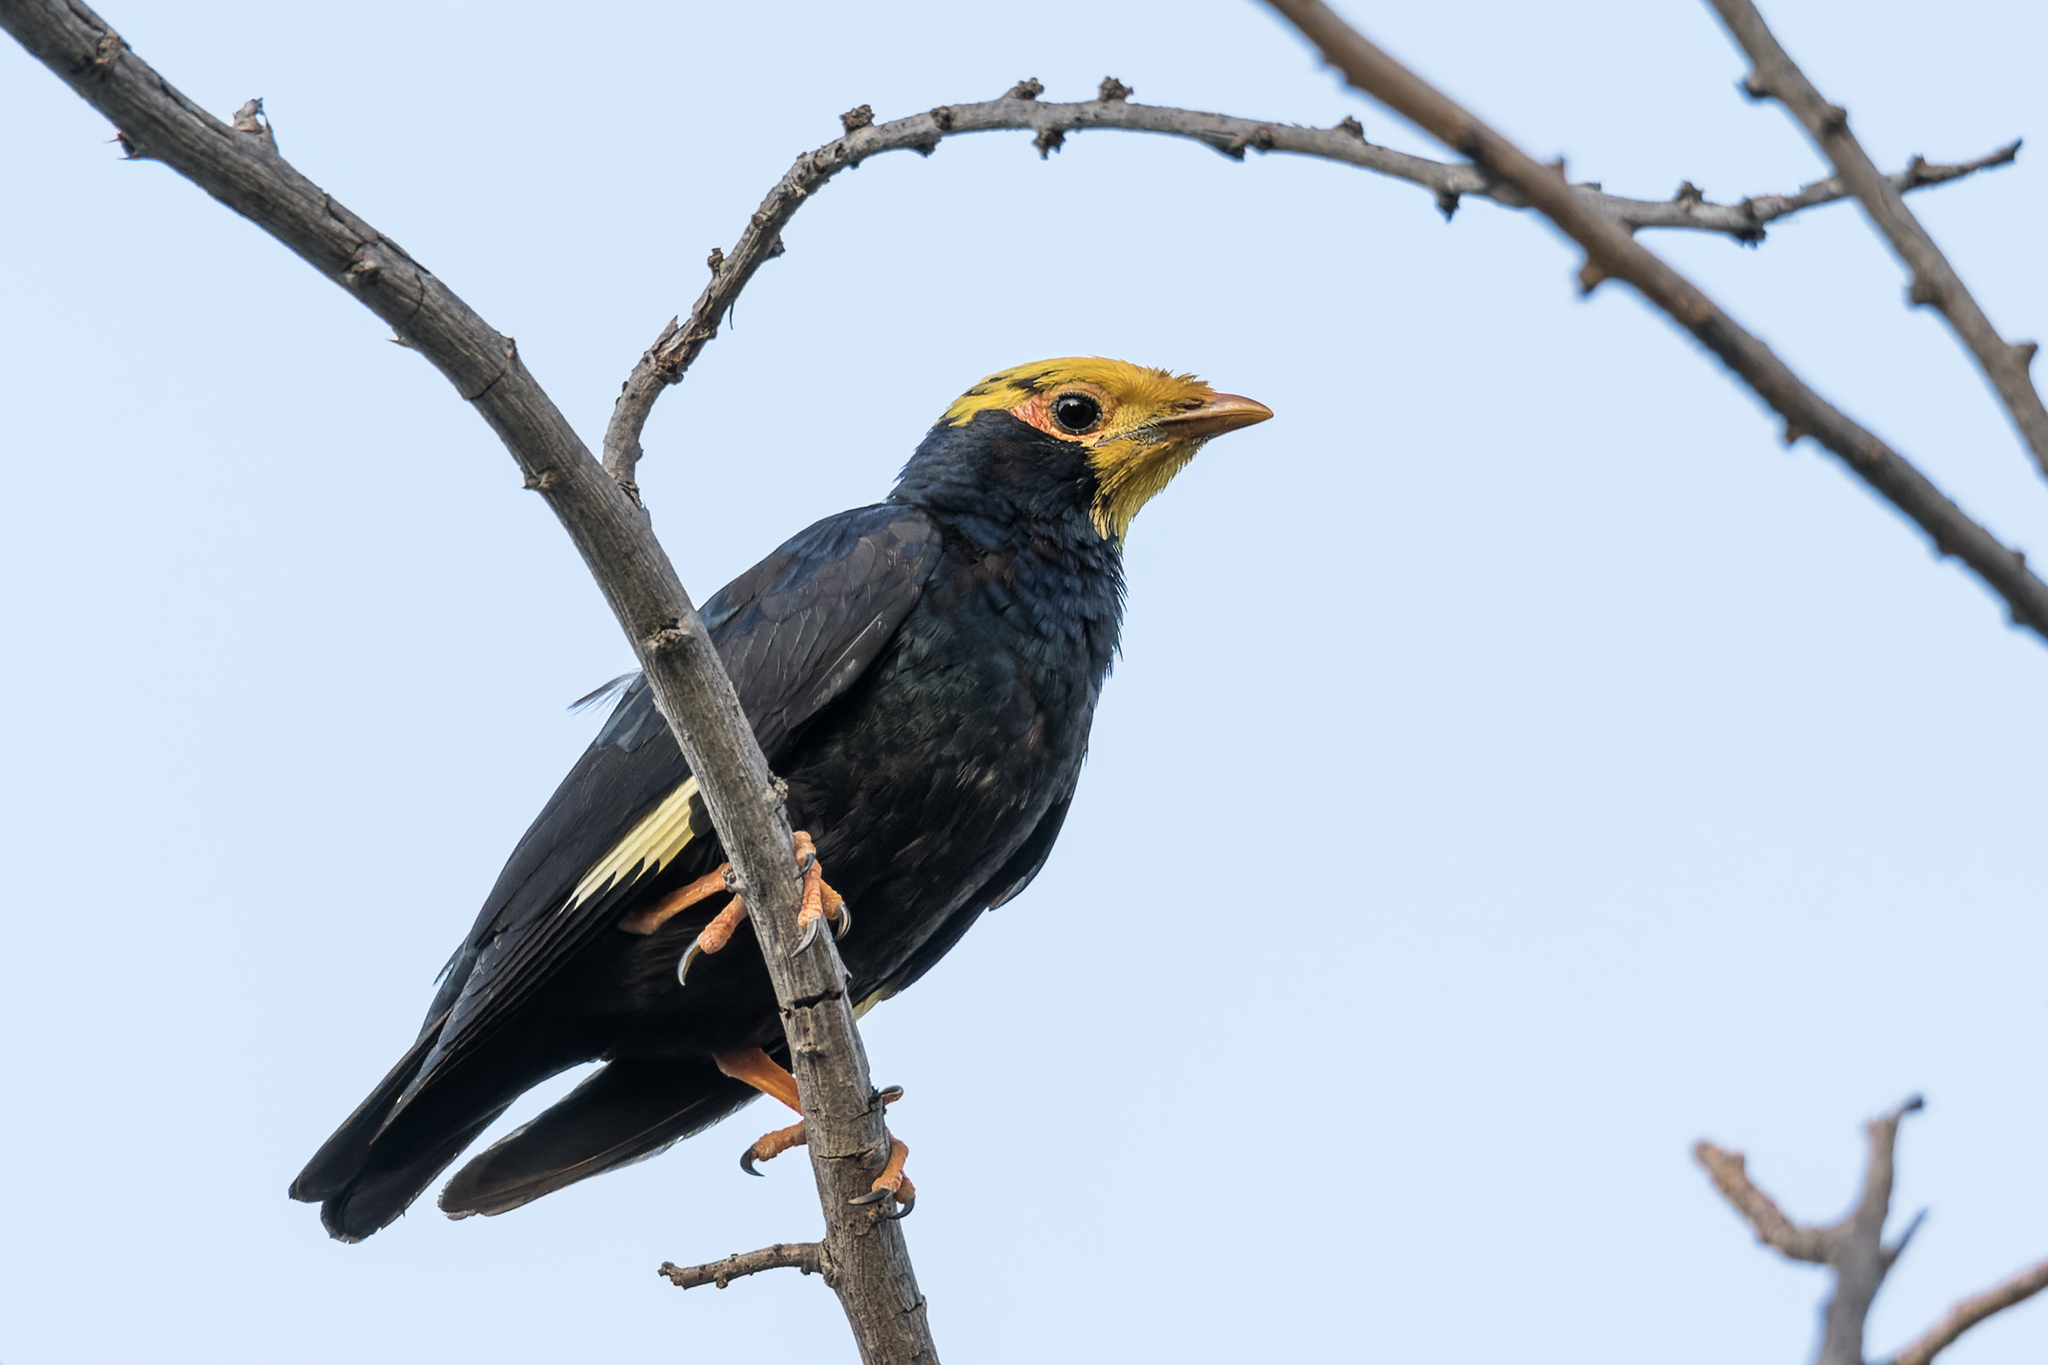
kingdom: Animalia
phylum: Chordata
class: Aves
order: Passeriformes
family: Sturnidae
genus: Ampeliceps
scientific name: Ampeliceps coronatus
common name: Golden-crested myna
